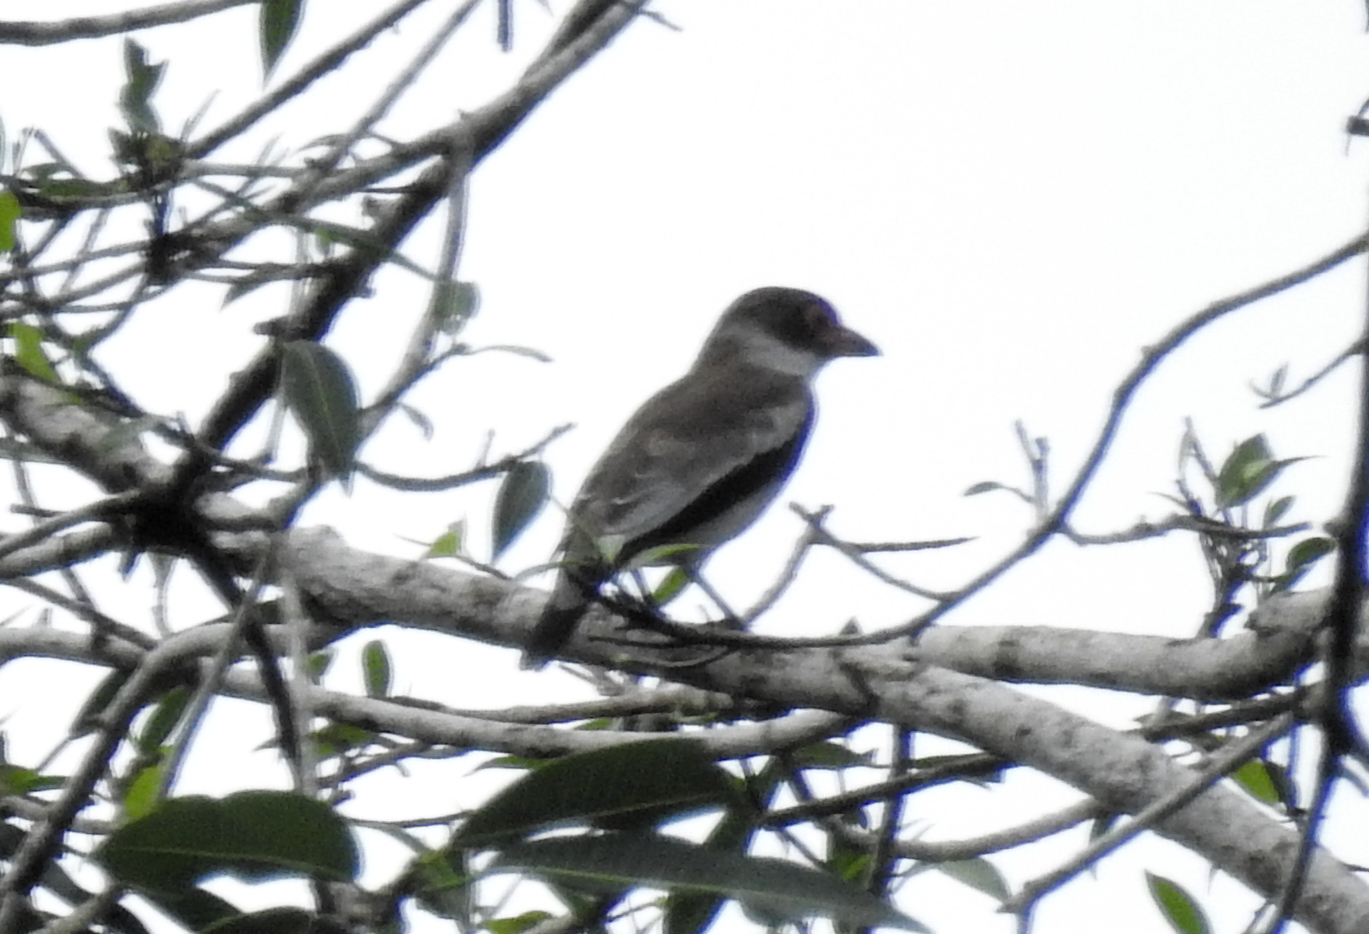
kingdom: Animalia
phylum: Chordata
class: Aves
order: Passeriformes
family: Cotingidae
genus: Tityra
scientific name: Tityra semifasciata
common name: Masked tityra
